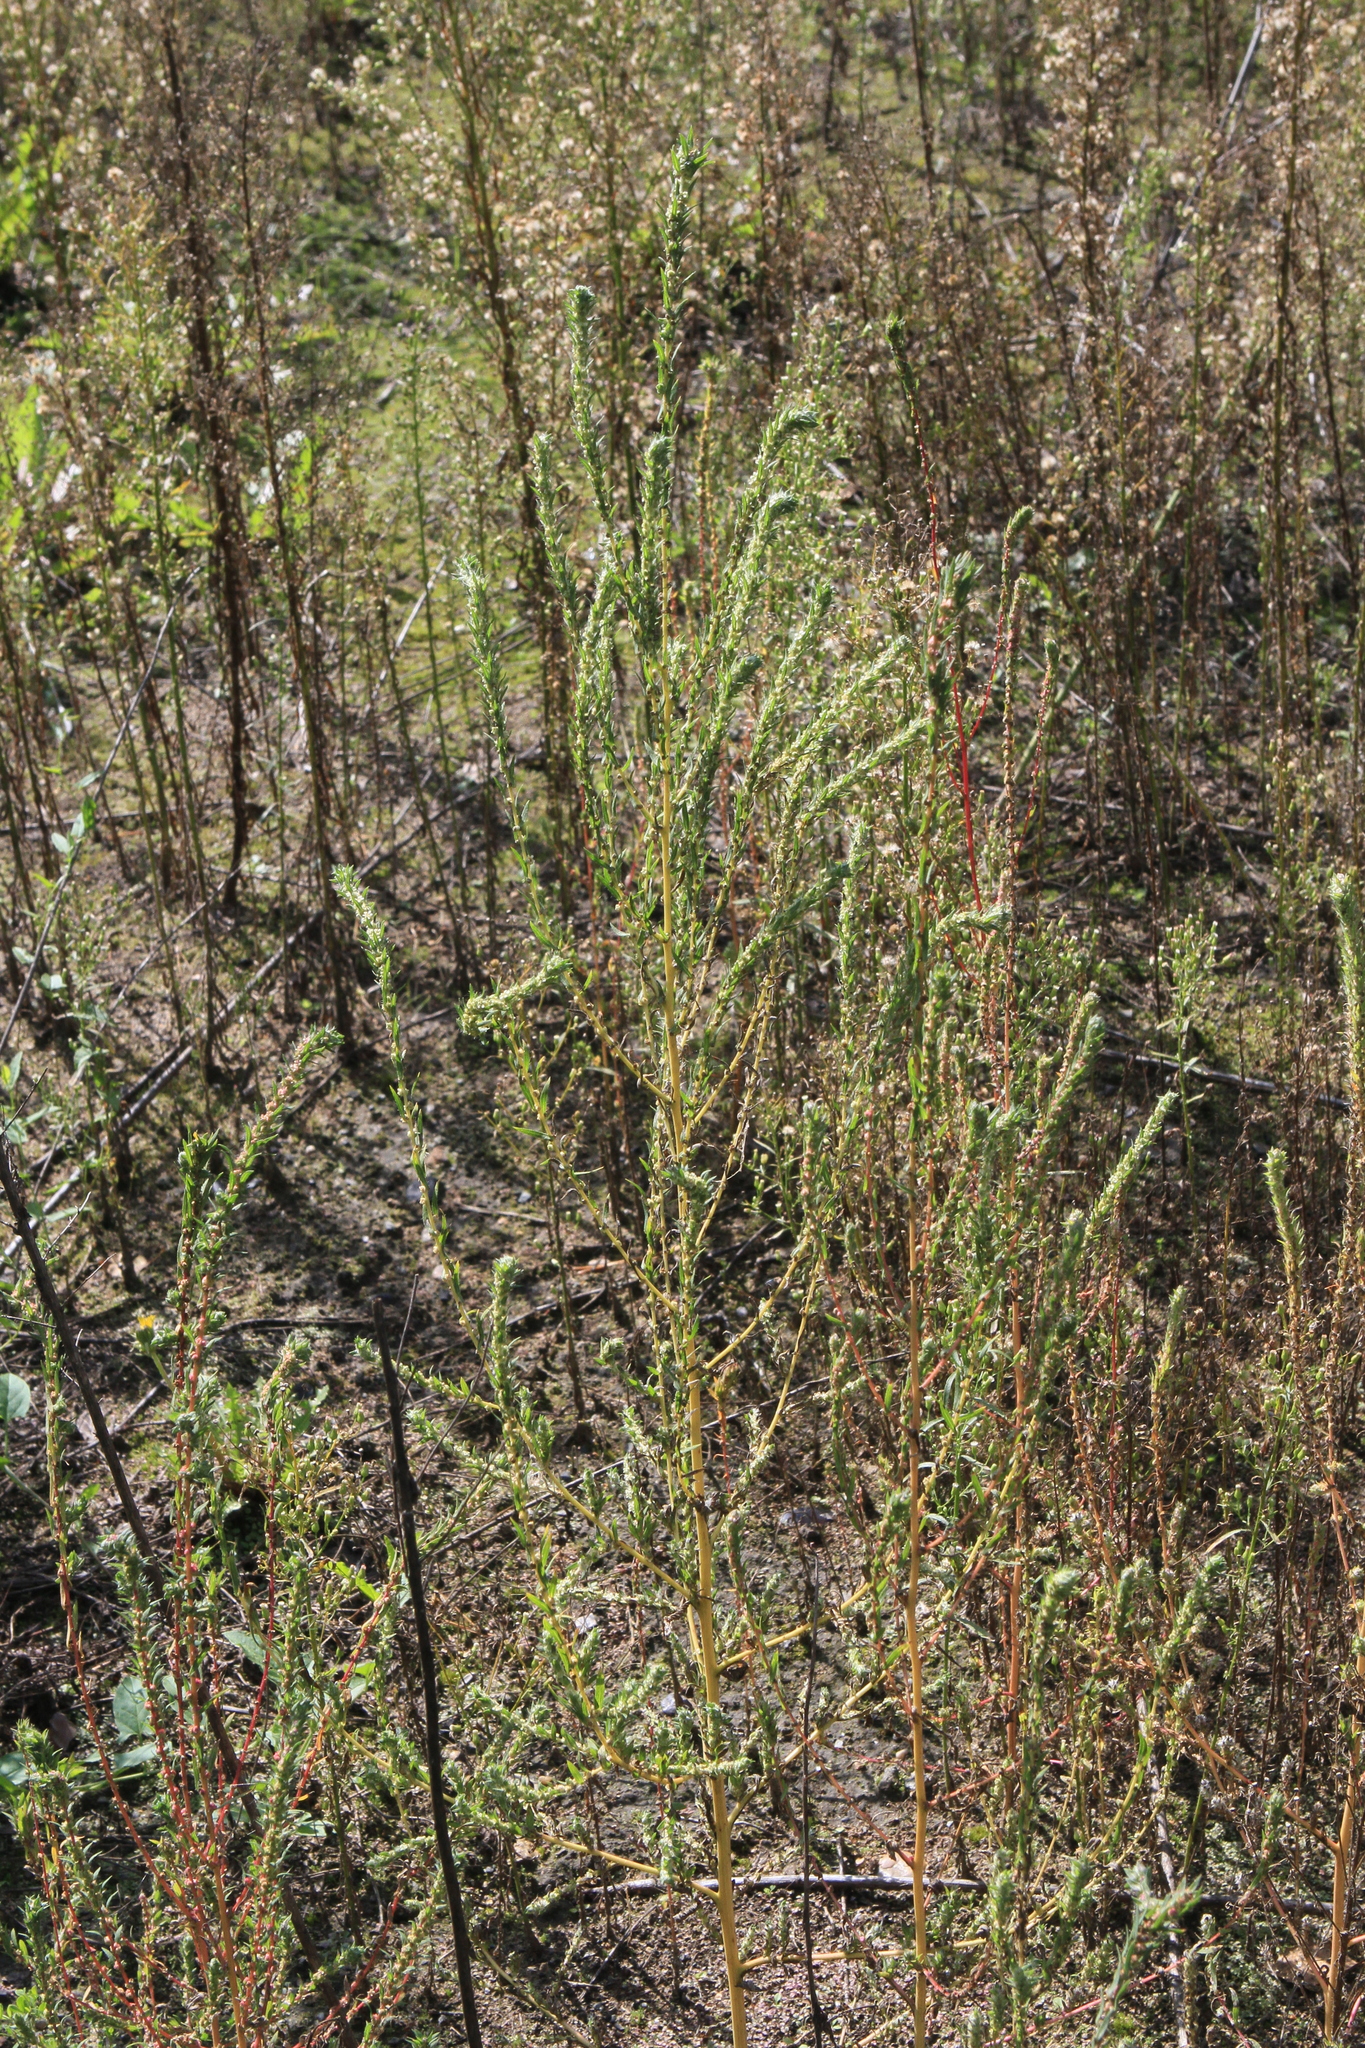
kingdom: Plantae
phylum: Tracheophyta
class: Magnoliopsida
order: Caryophyllales
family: Amaranthaceae
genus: Bassia
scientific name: Bassia scoparia
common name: Belvedere
